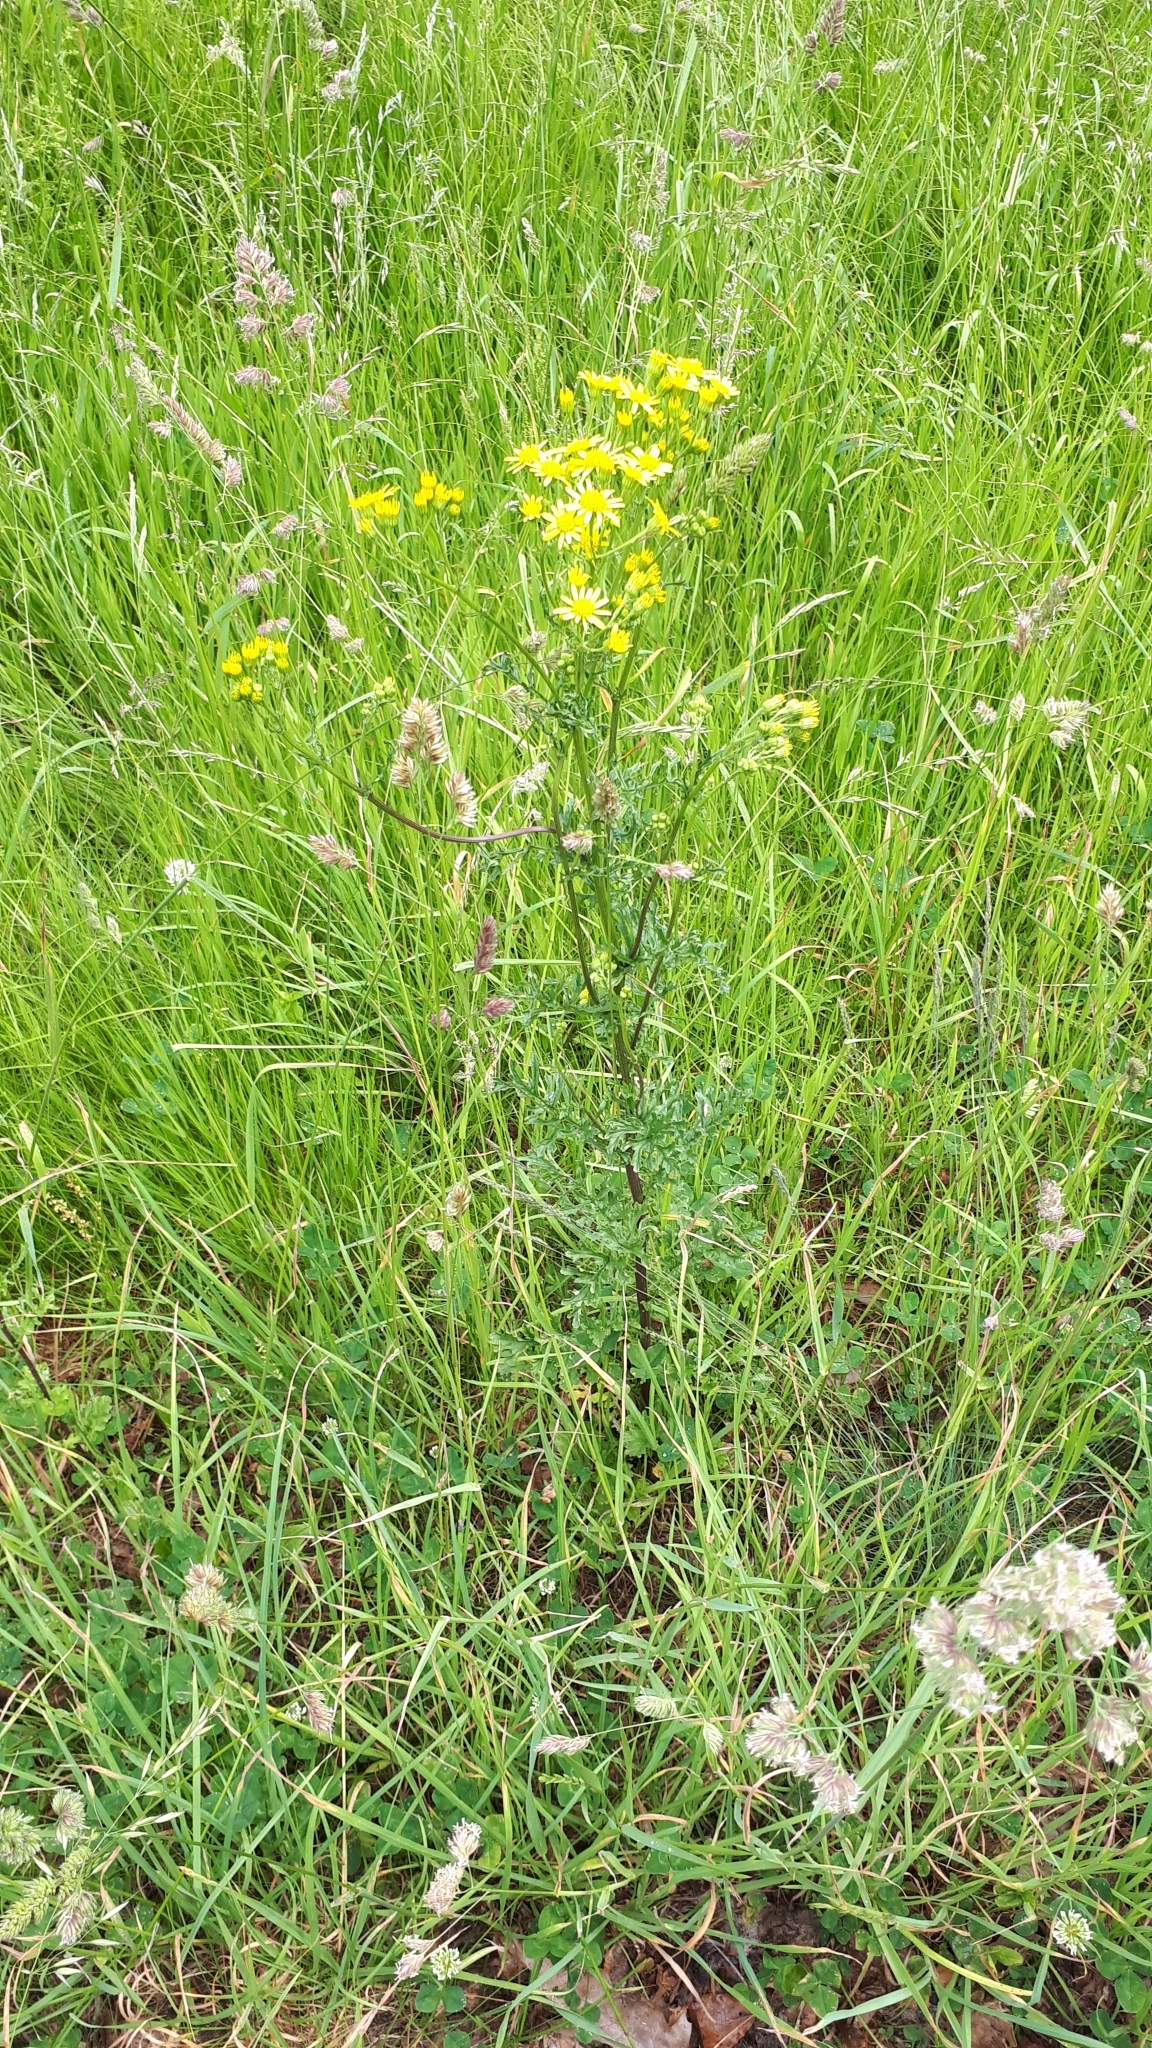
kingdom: Plantae
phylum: Tracheophyta
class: Magnoliopsida
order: Asterales
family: Asteraceae
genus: Jacobaea
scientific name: Jacobaea vulgaris
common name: Stinking willie
